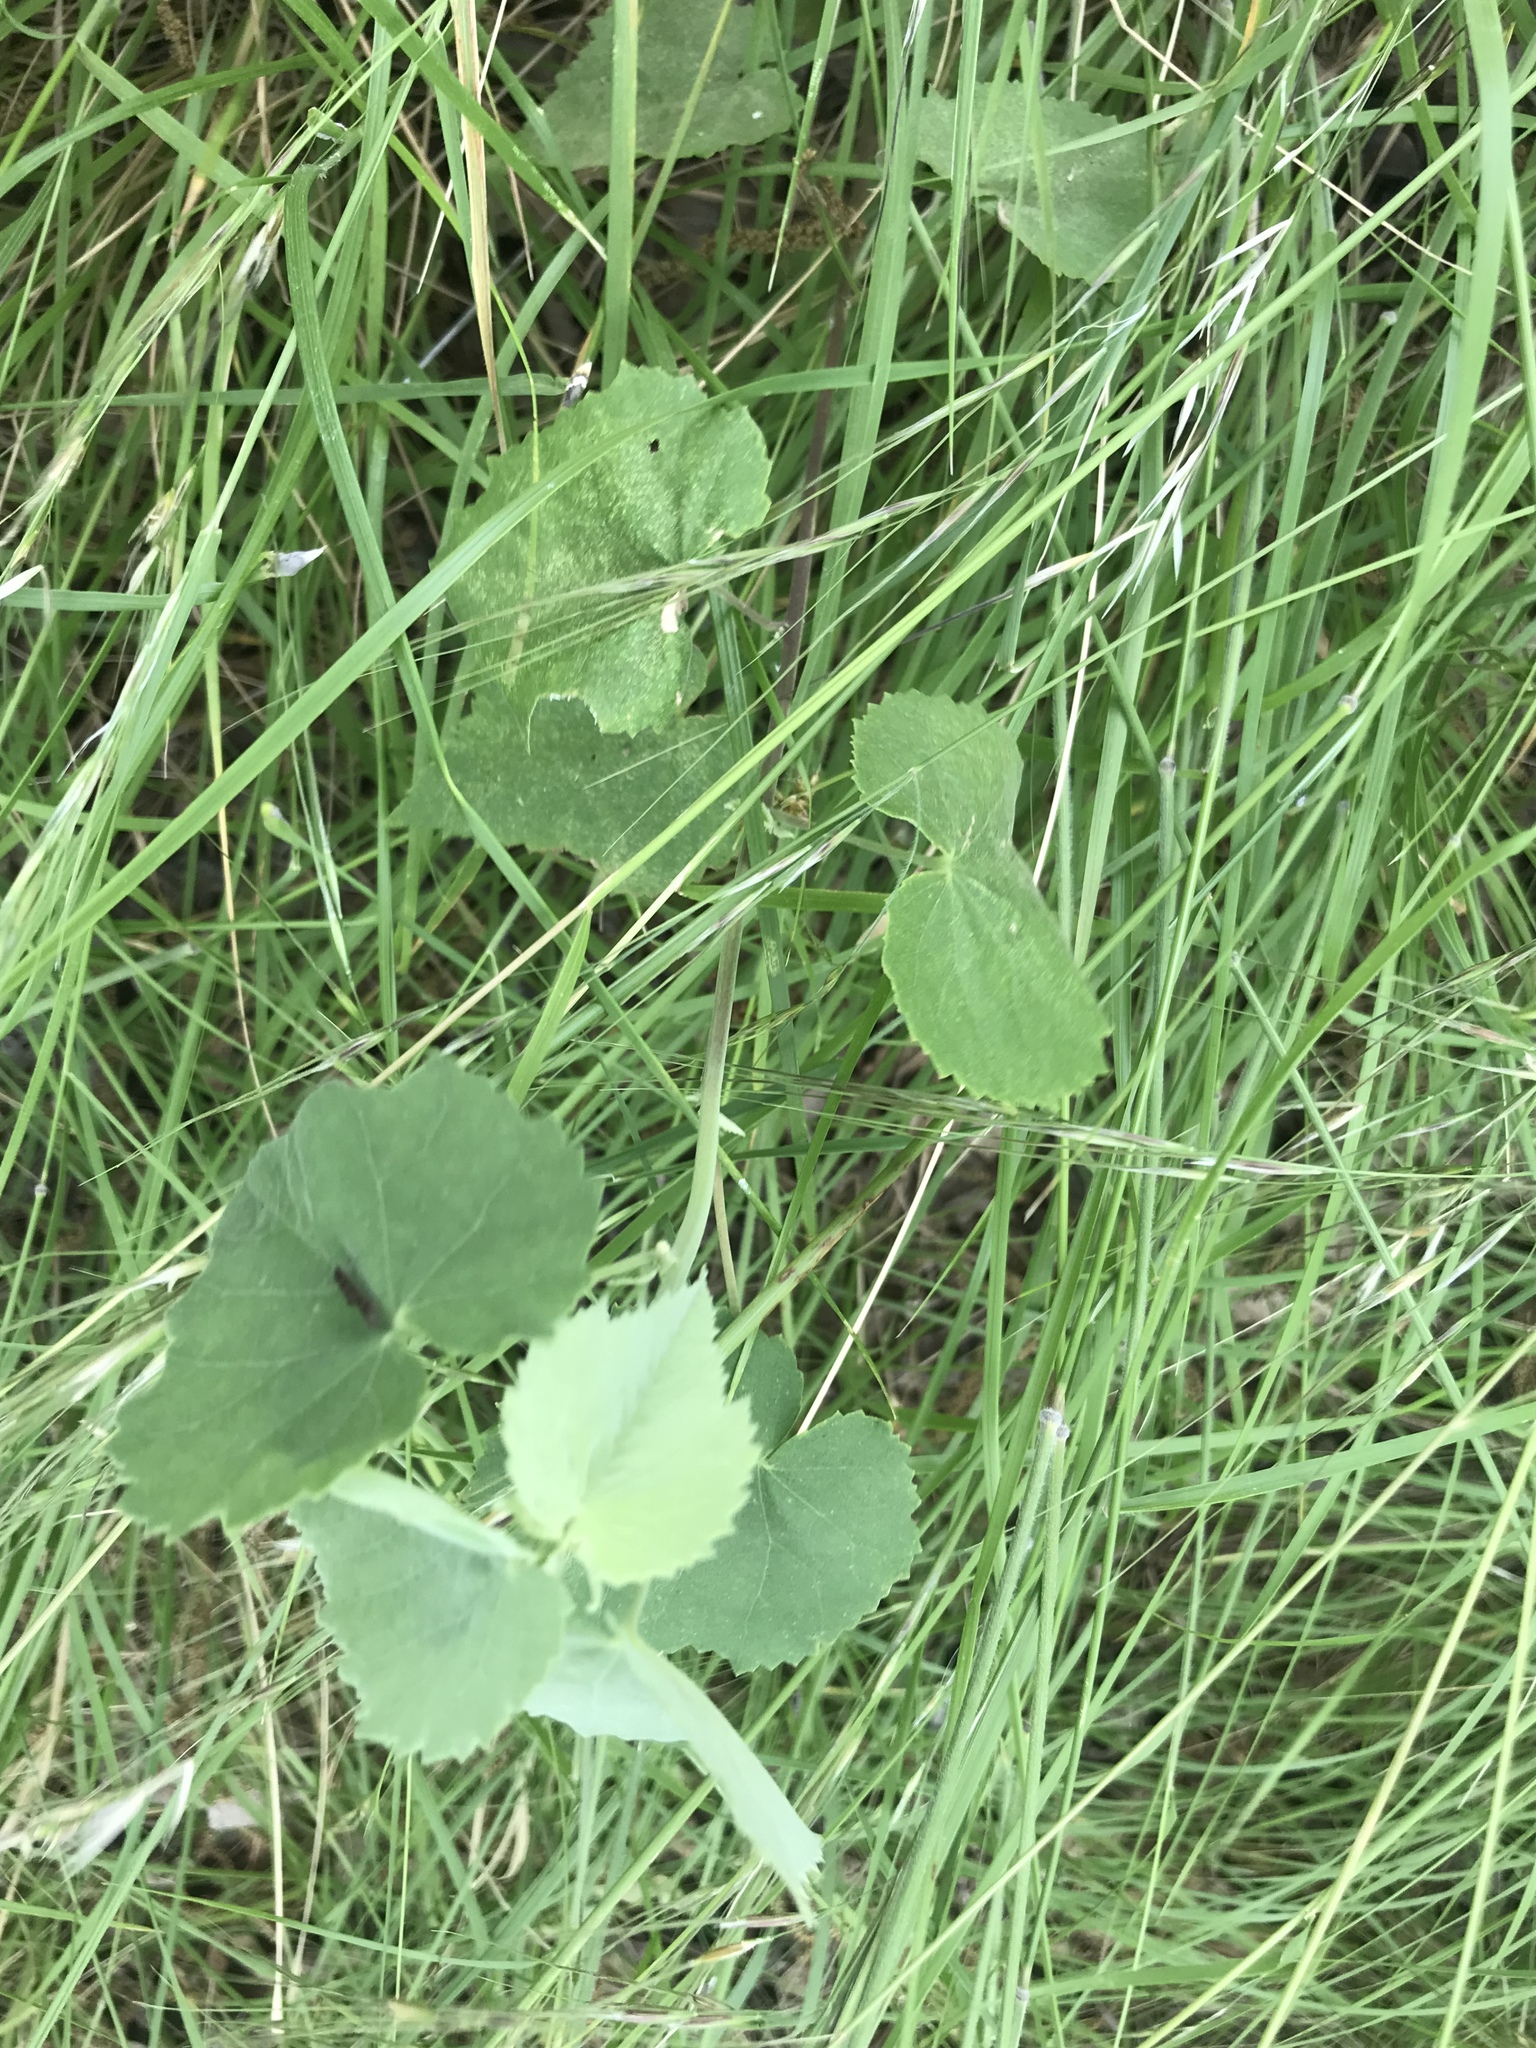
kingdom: Plantae
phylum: Tracheophyta
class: Magnoliopsida
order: Malvales
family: Malvaceae
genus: Abutilon
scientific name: Abutilon fruticosum
